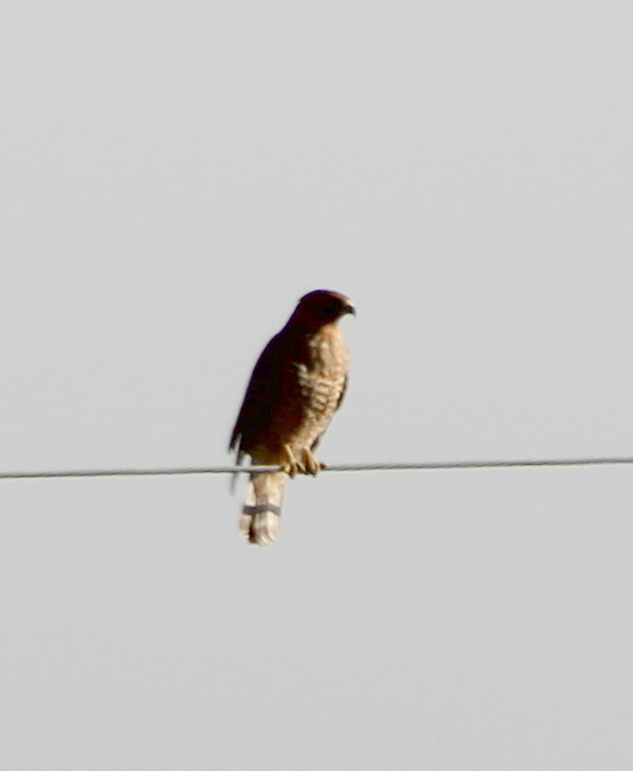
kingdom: Animalia
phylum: Chordata
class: Aves
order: Accipitriformes
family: Accipitridae
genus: Buteo
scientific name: Buteo lineatus
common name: Red-shouldered hawk
